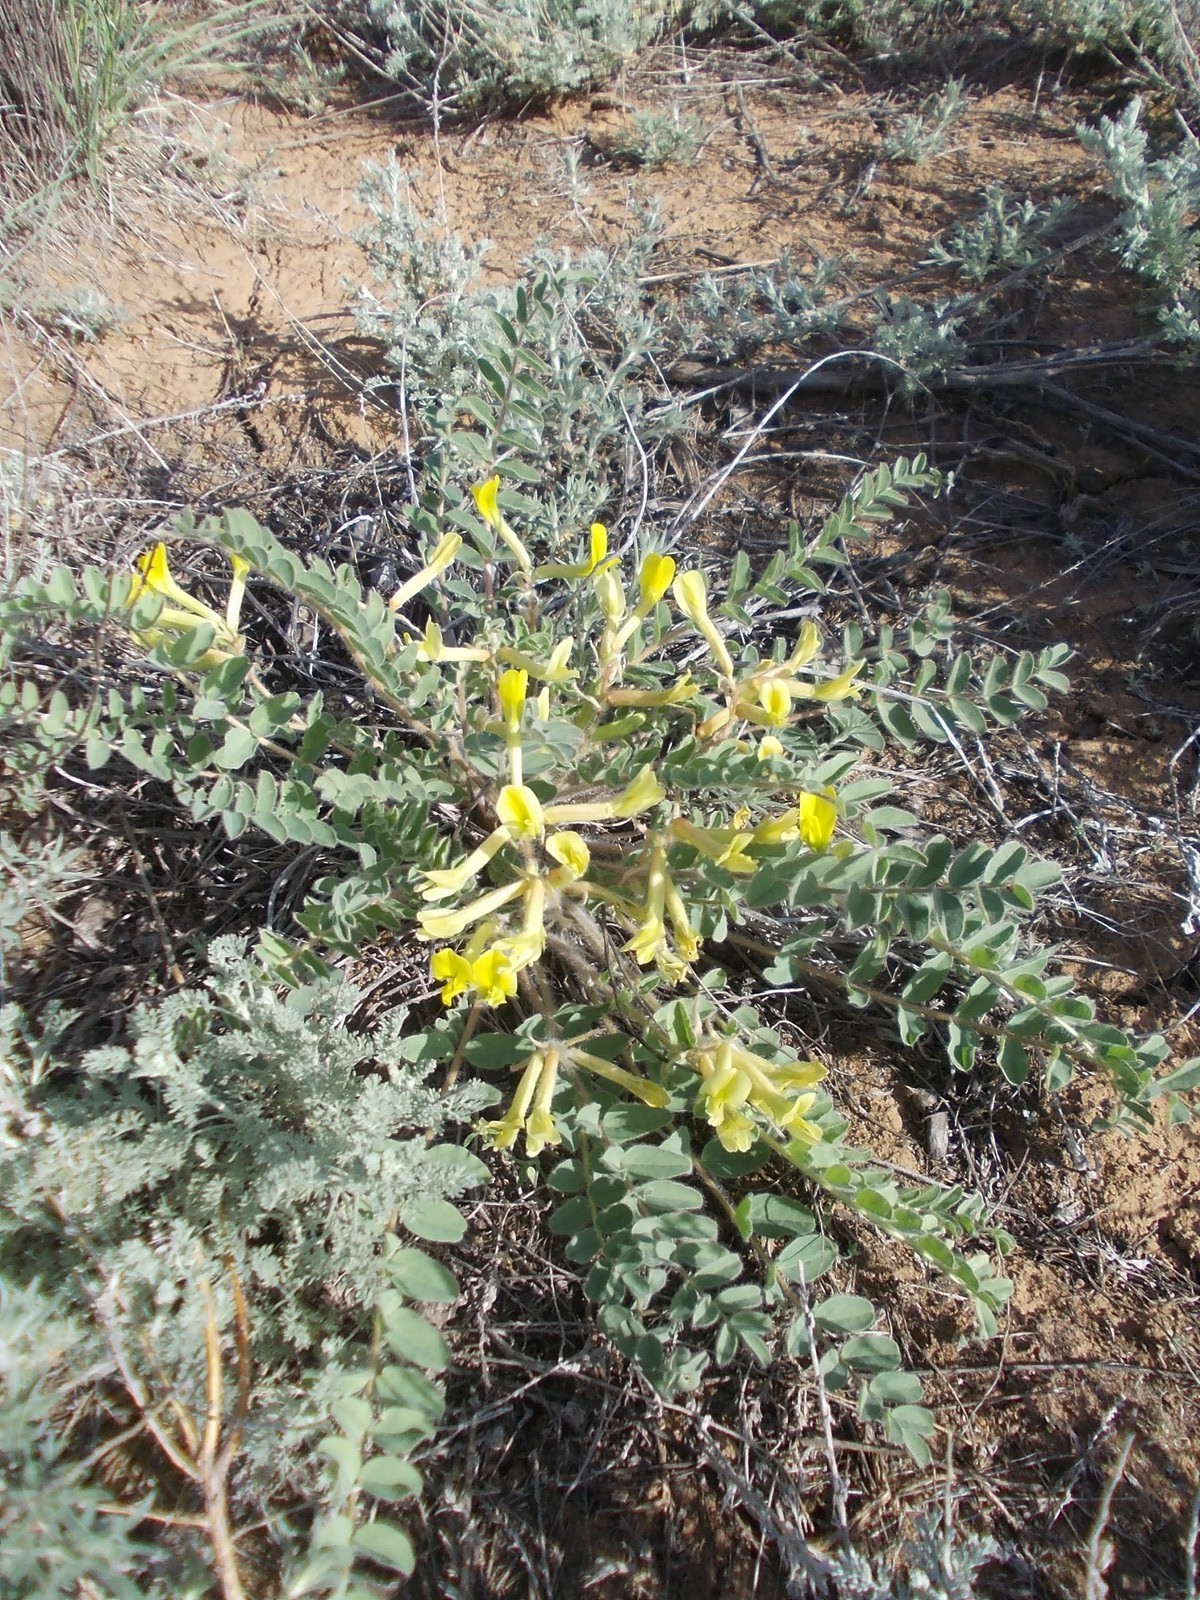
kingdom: Plantae
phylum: Tracheophyta
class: Magnoliopsida
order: Fabales
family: Fabaceae
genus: Astragalus
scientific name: Astragalus longipetalus
